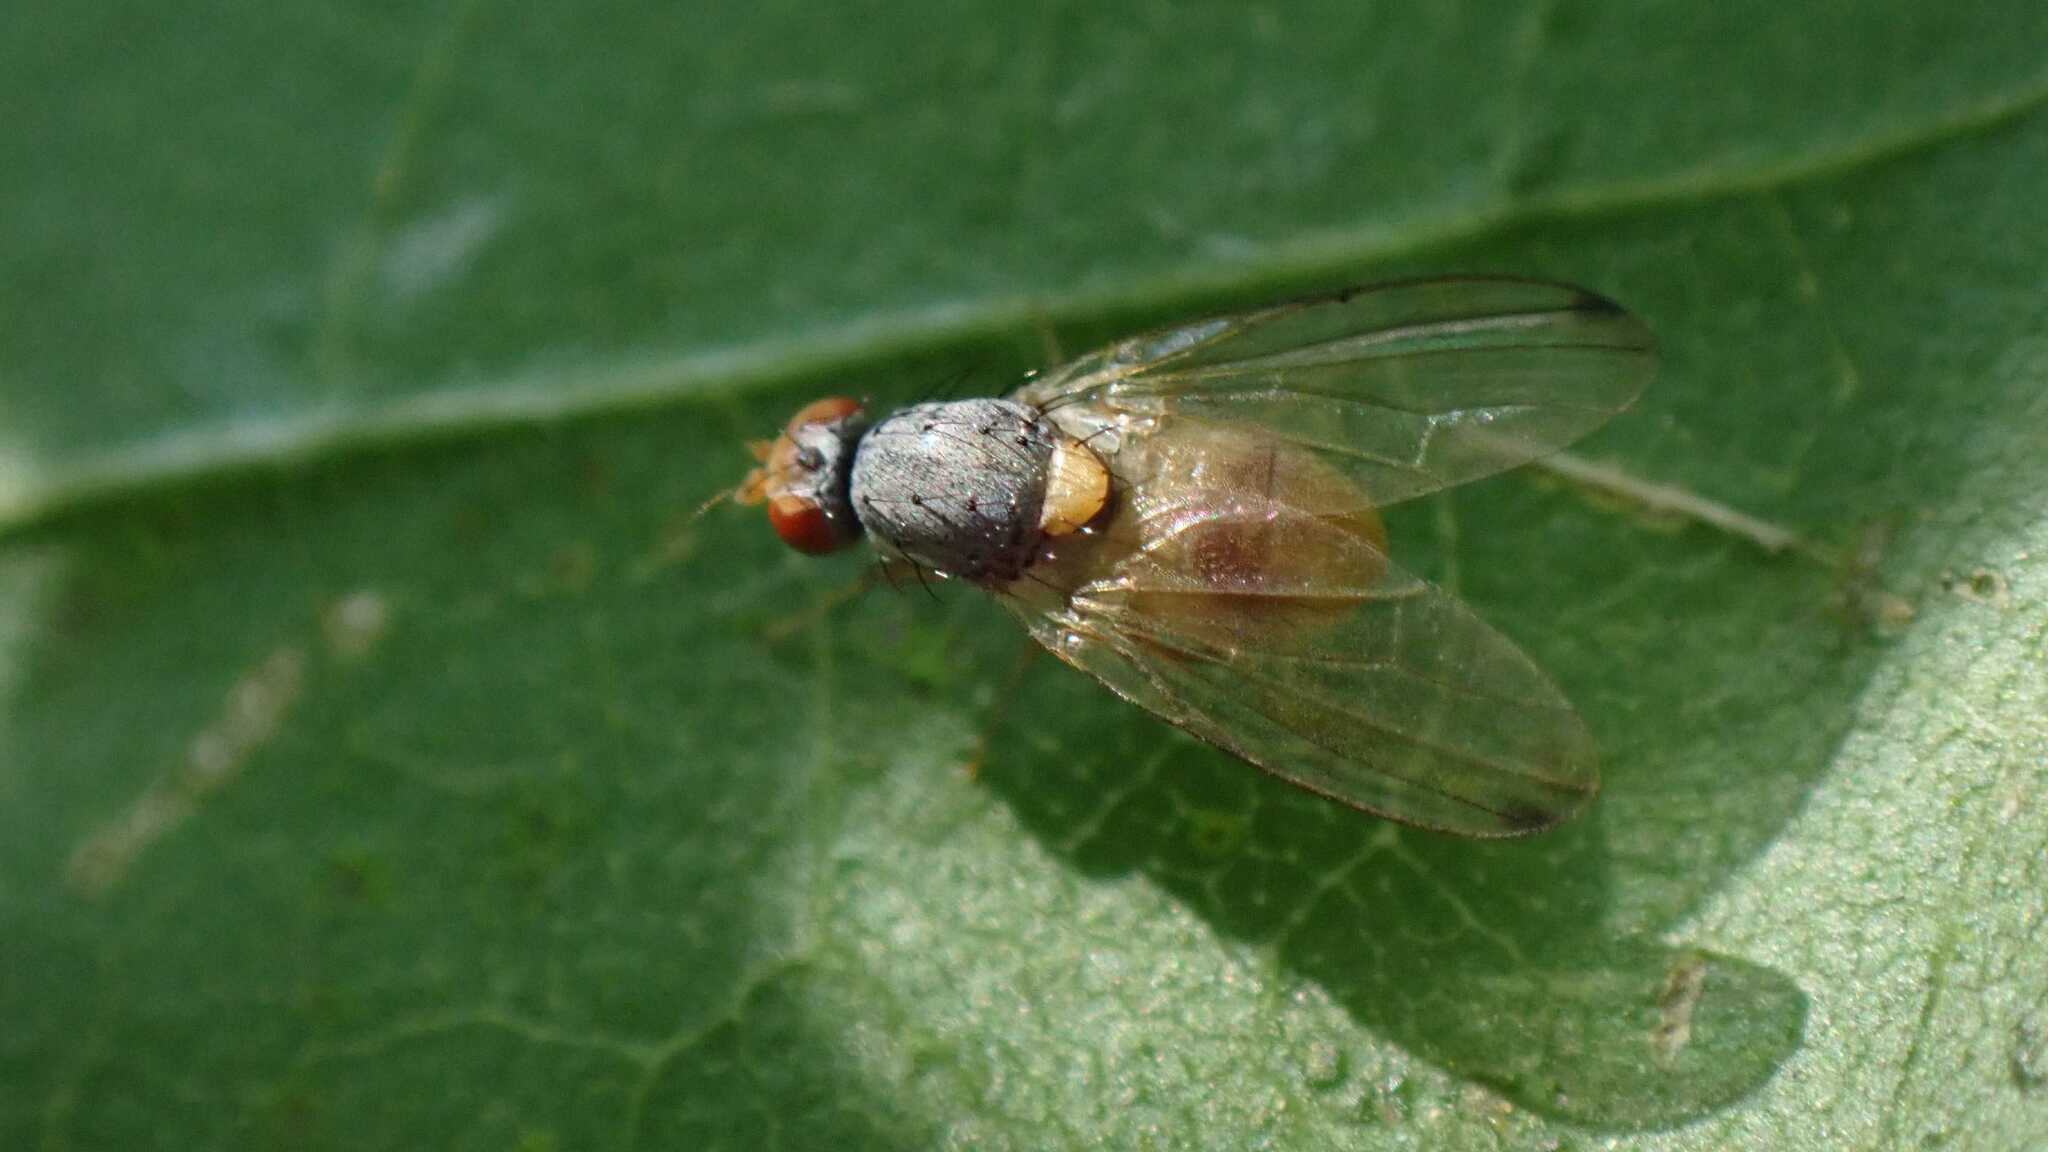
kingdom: Animalia
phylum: Arthropoda
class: Insecta
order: Diptera
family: Pallopteridae
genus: Palloptera
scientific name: Palloptera
